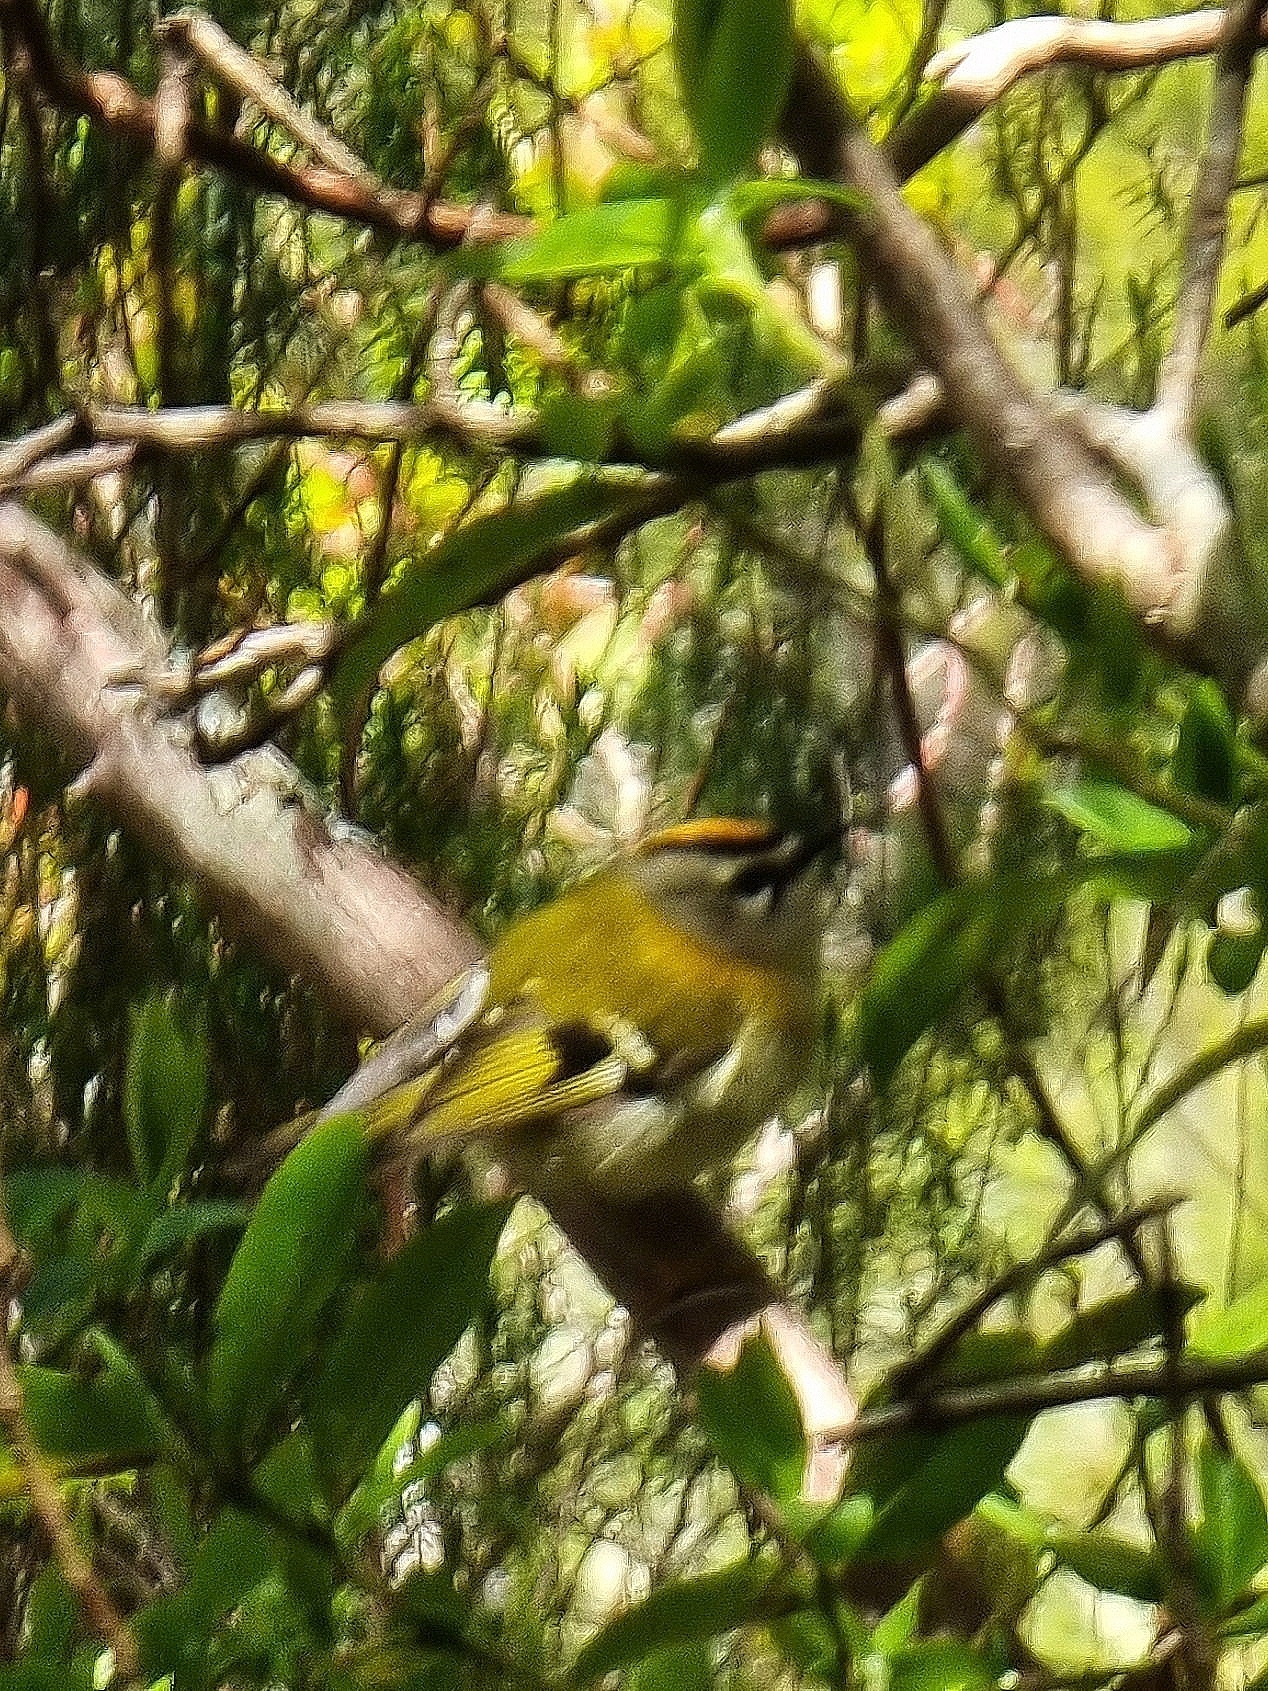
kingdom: Animalia
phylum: Chordata
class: Aves
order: Passeriformes
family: Regulidae
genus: Regulus
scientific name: Regulus madeirensis
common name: Madeira firecrest
